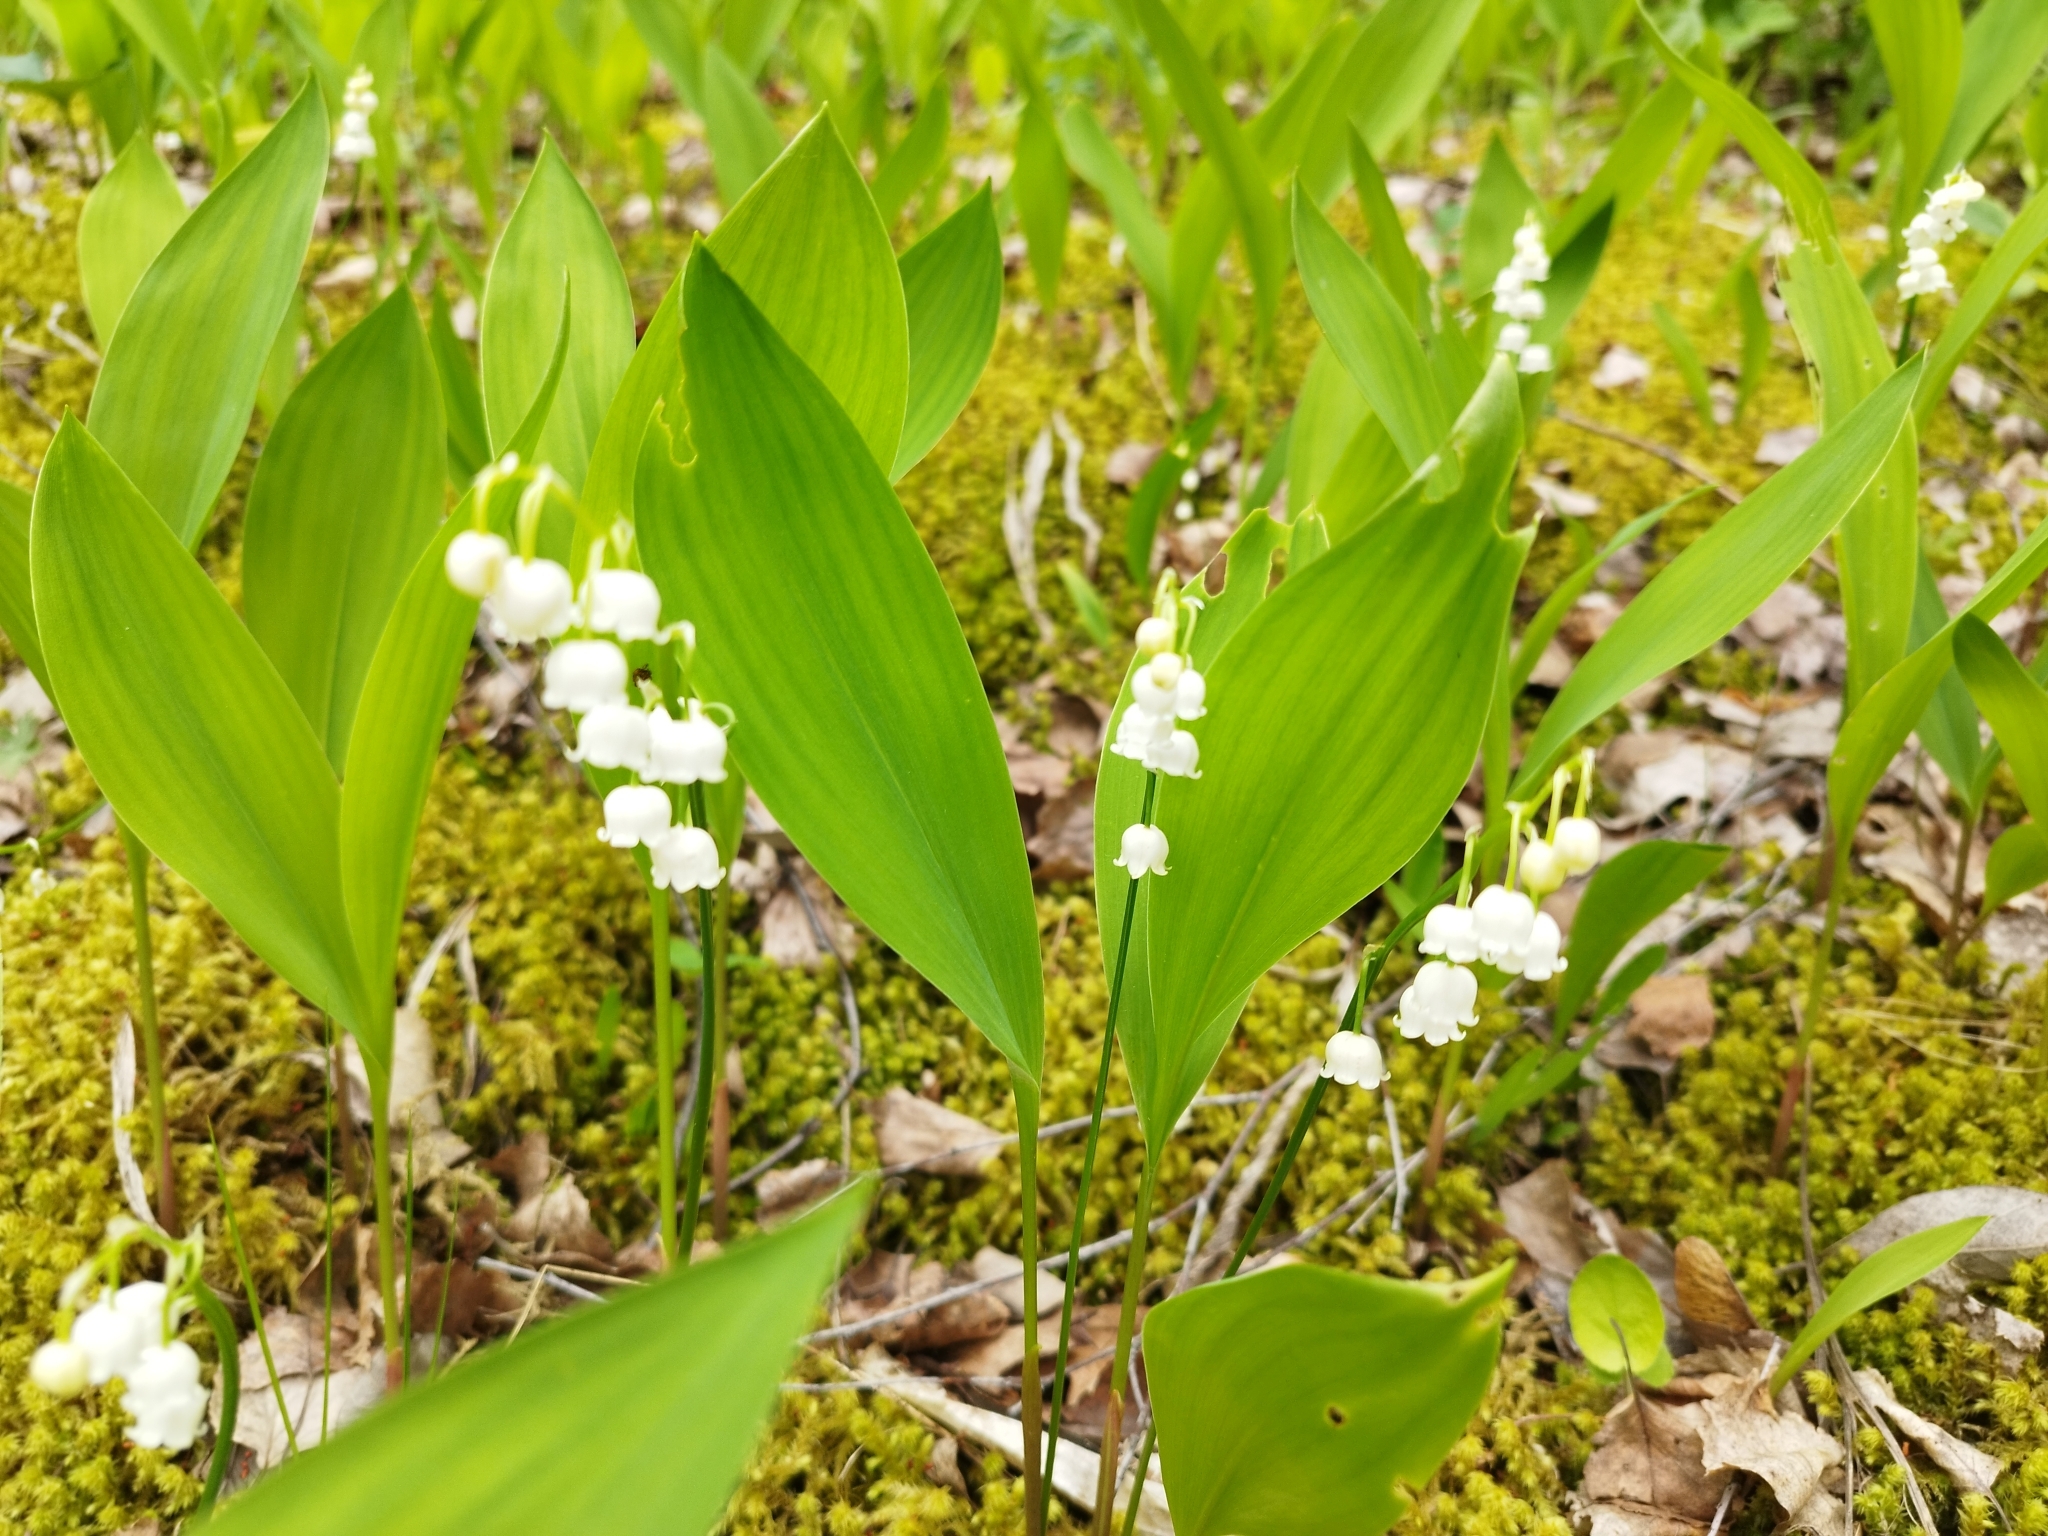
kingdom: Plantae
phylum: Tracheophyta
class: Liliopsida
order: Asparagales
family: Asparagaceae
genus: Convallaria
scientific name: Convallaria majalis
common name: Lily-of-the-valley
